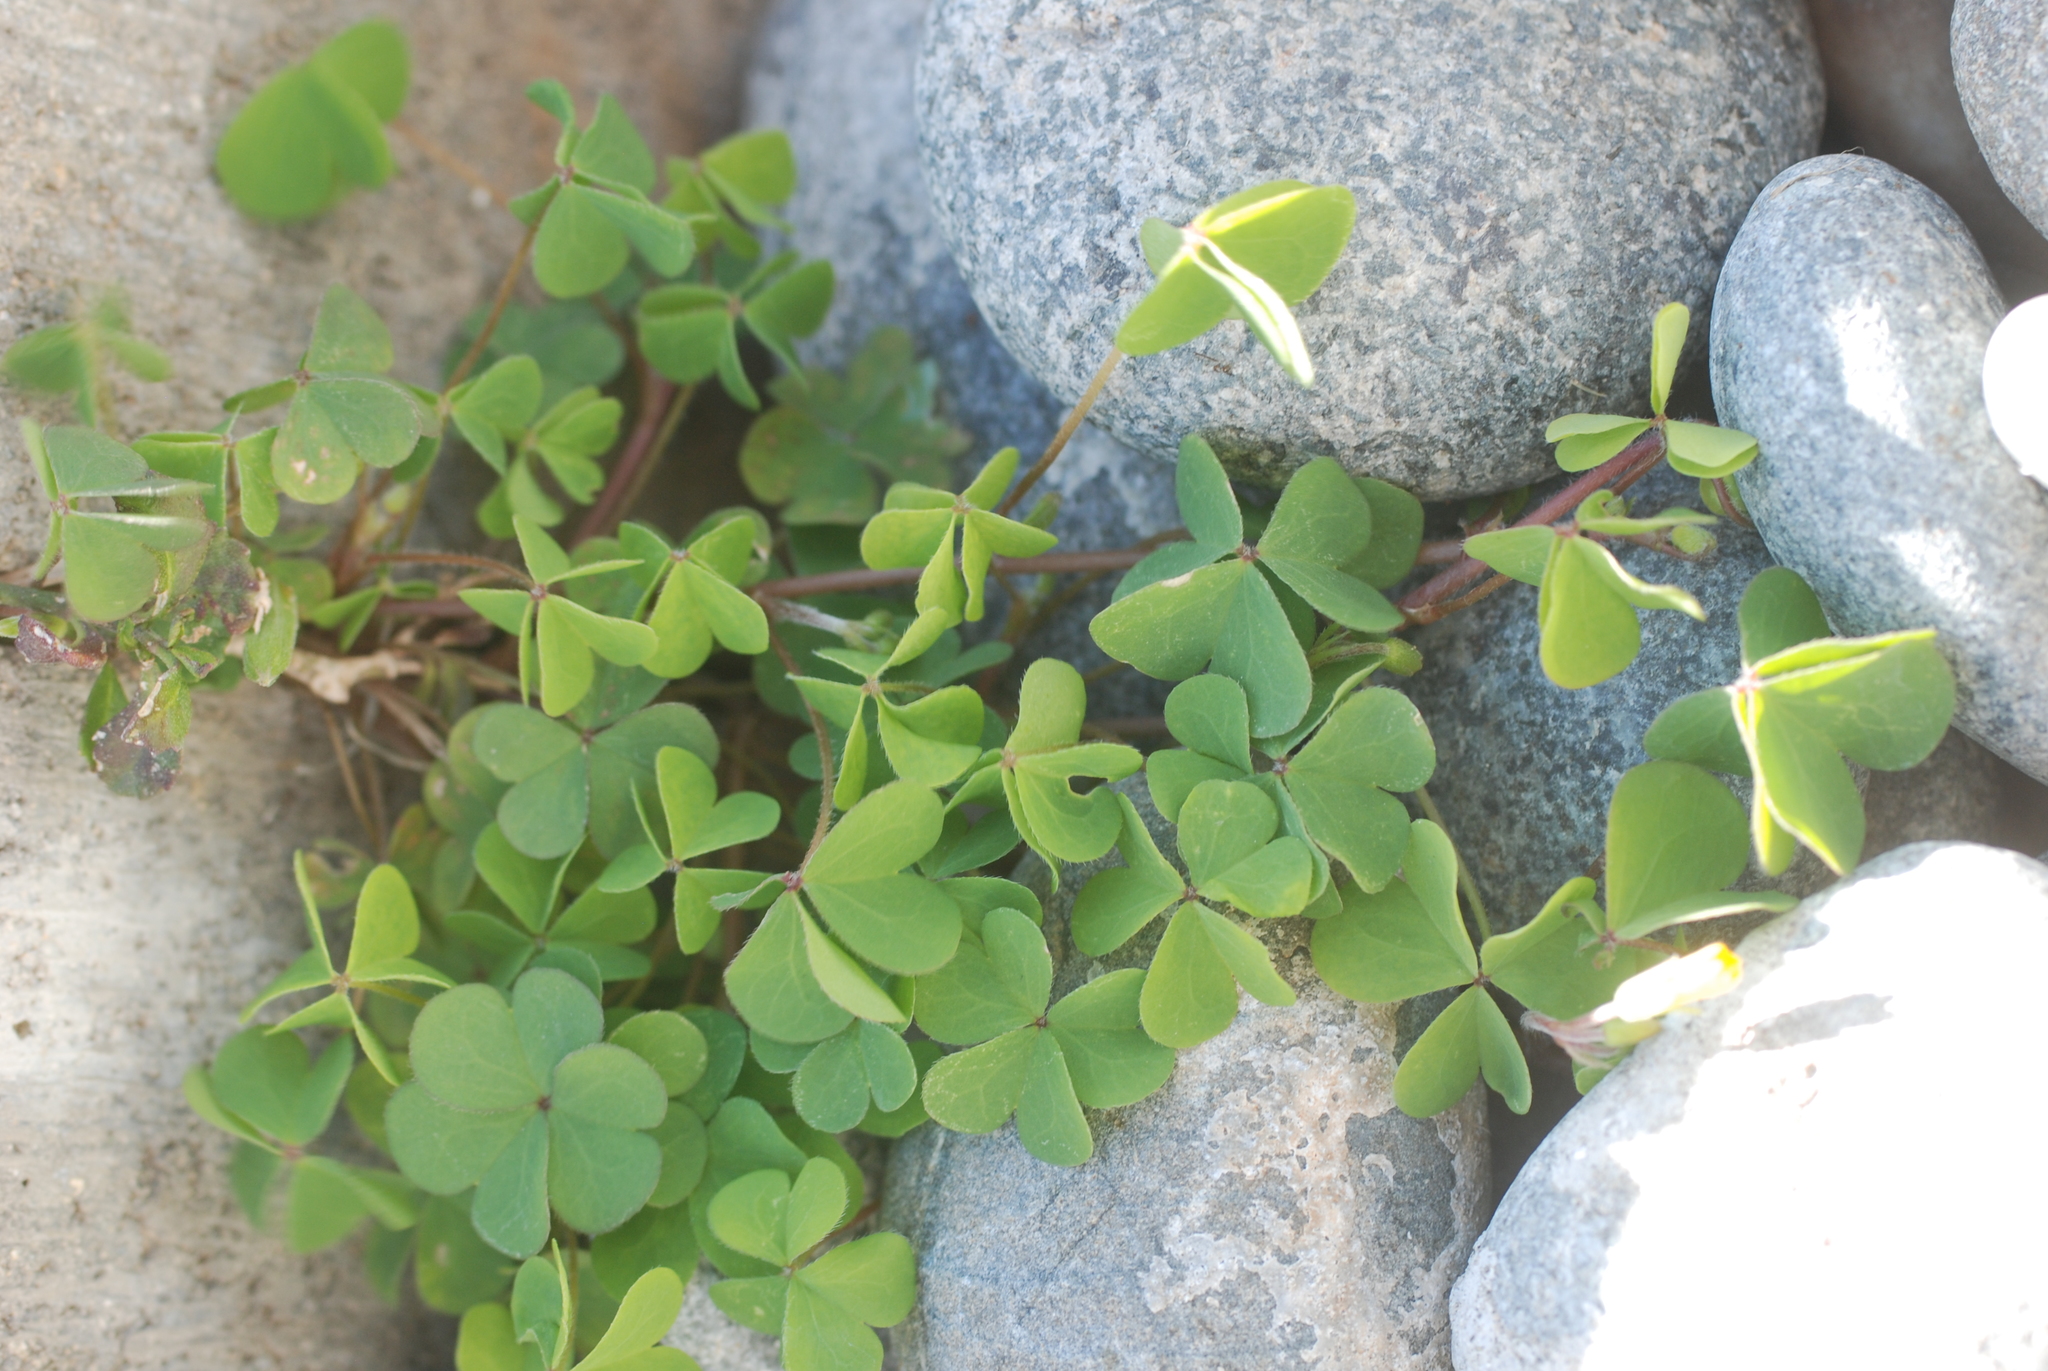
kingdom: Plantae
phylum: Tracheophyta
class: Magnoliopsida
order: Oxalidales
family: Oxalidaceae
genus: Oxalis
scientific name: Oxalis corniculata
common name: Procumbent yellow-sorrel
